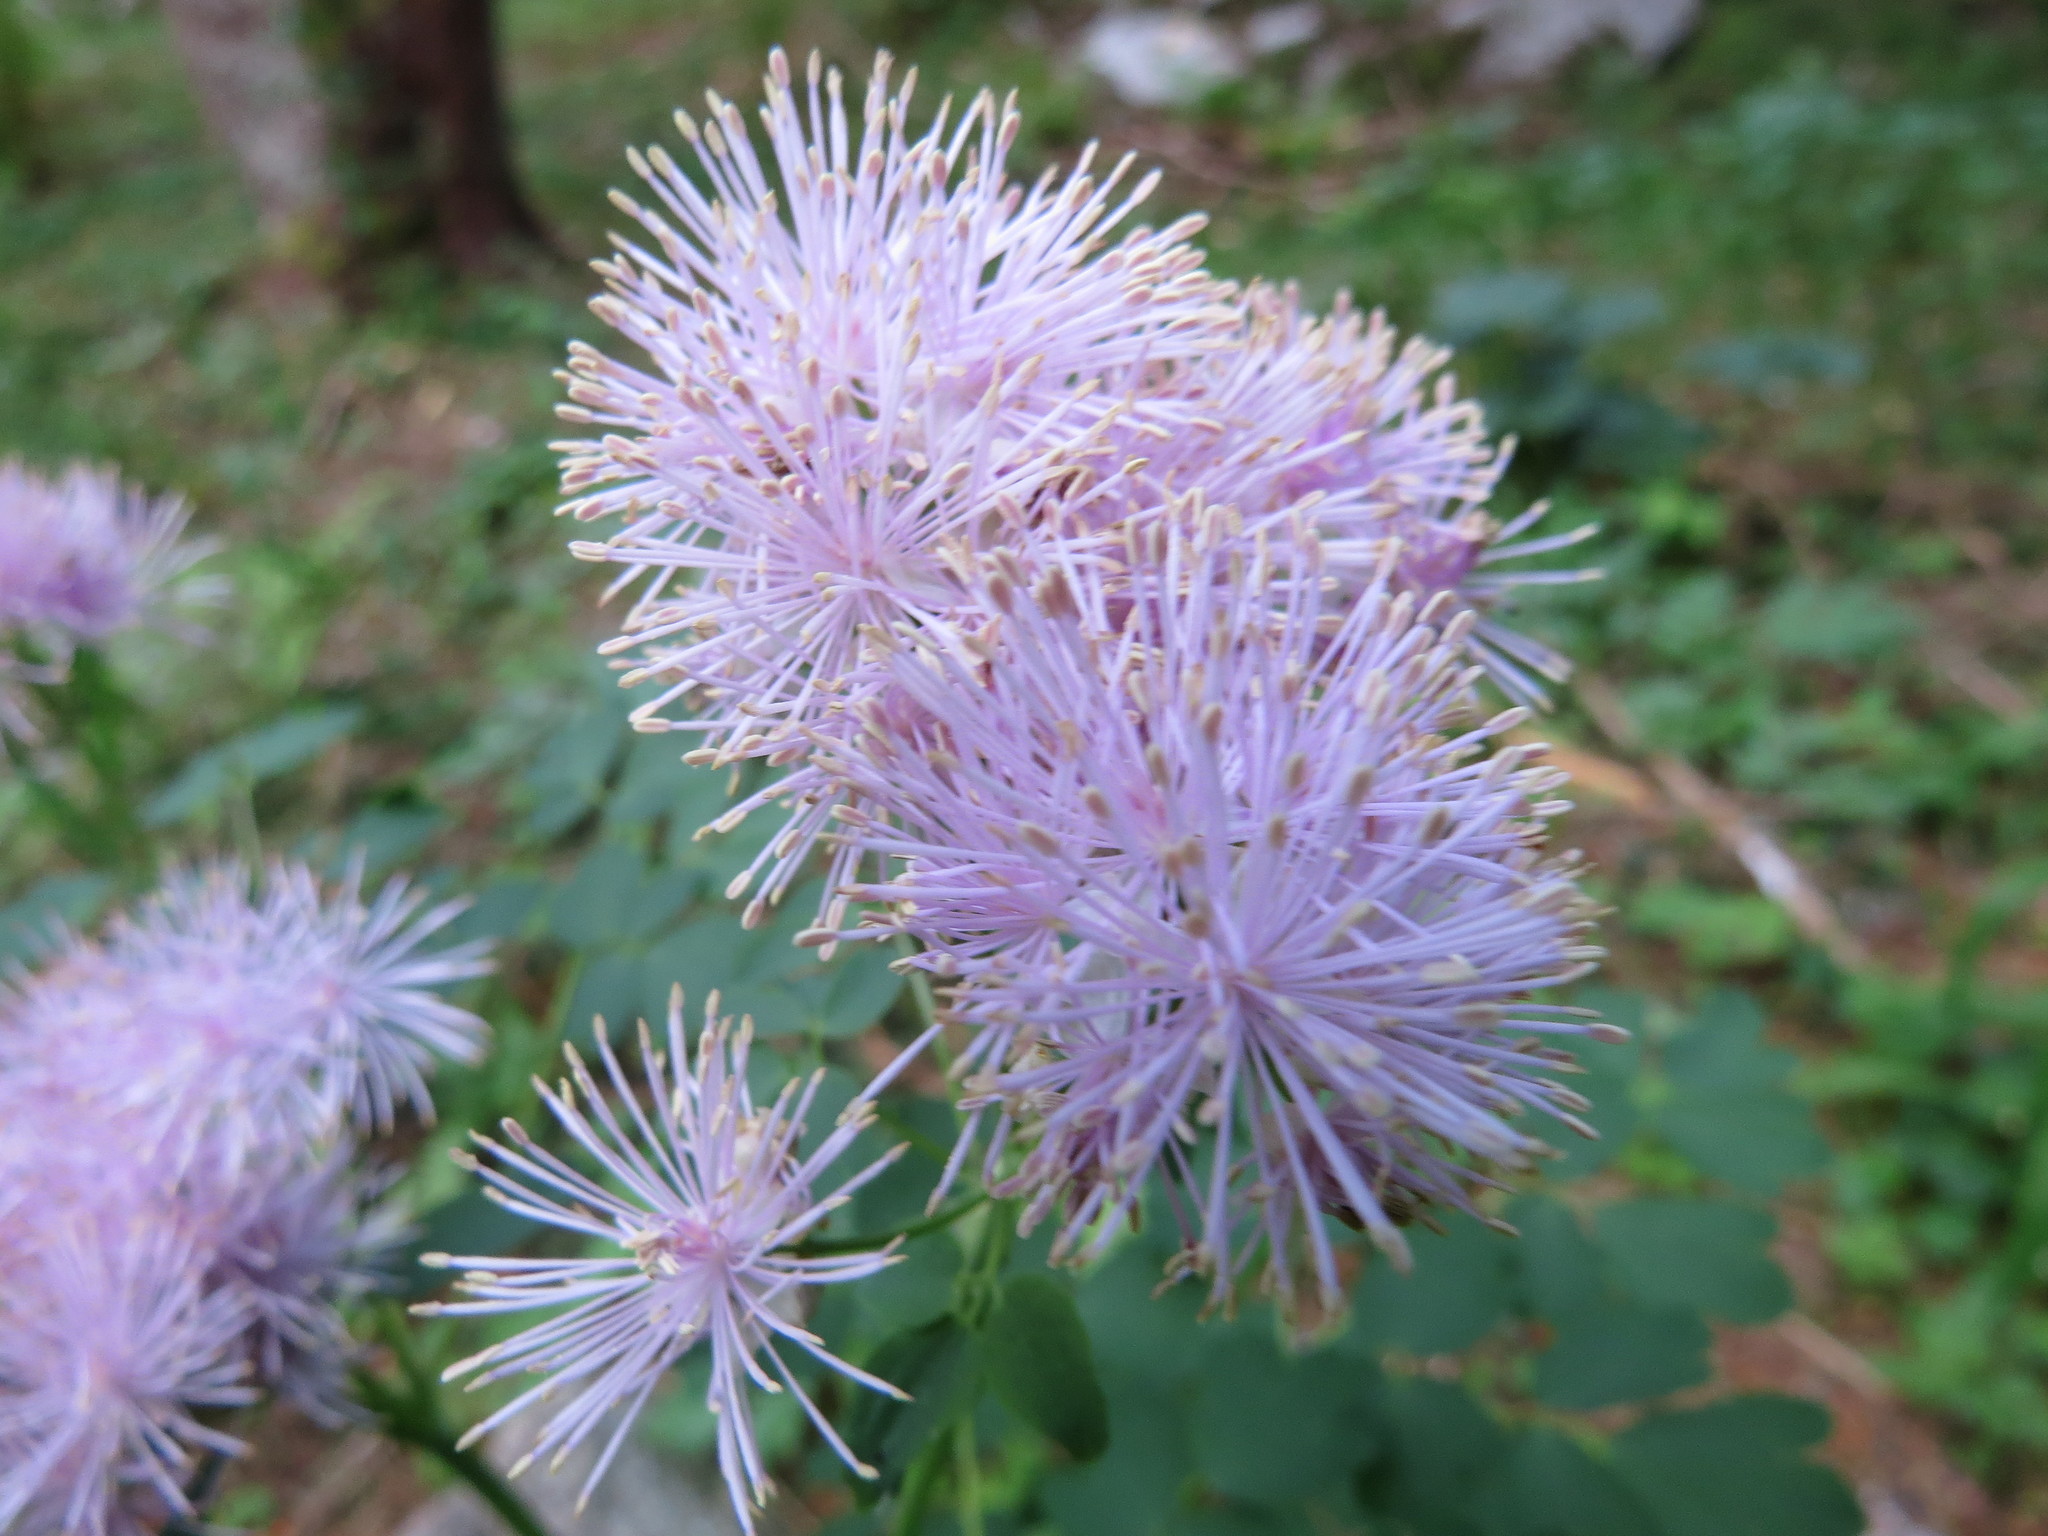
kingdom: Plantae
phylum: Tracheophyta
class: Magnoliopsida
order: Ranunculales
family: Ranunculaceae
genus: Thalictrum
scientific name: Thalictrum aquilegiifolium
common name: French meadow-rue
